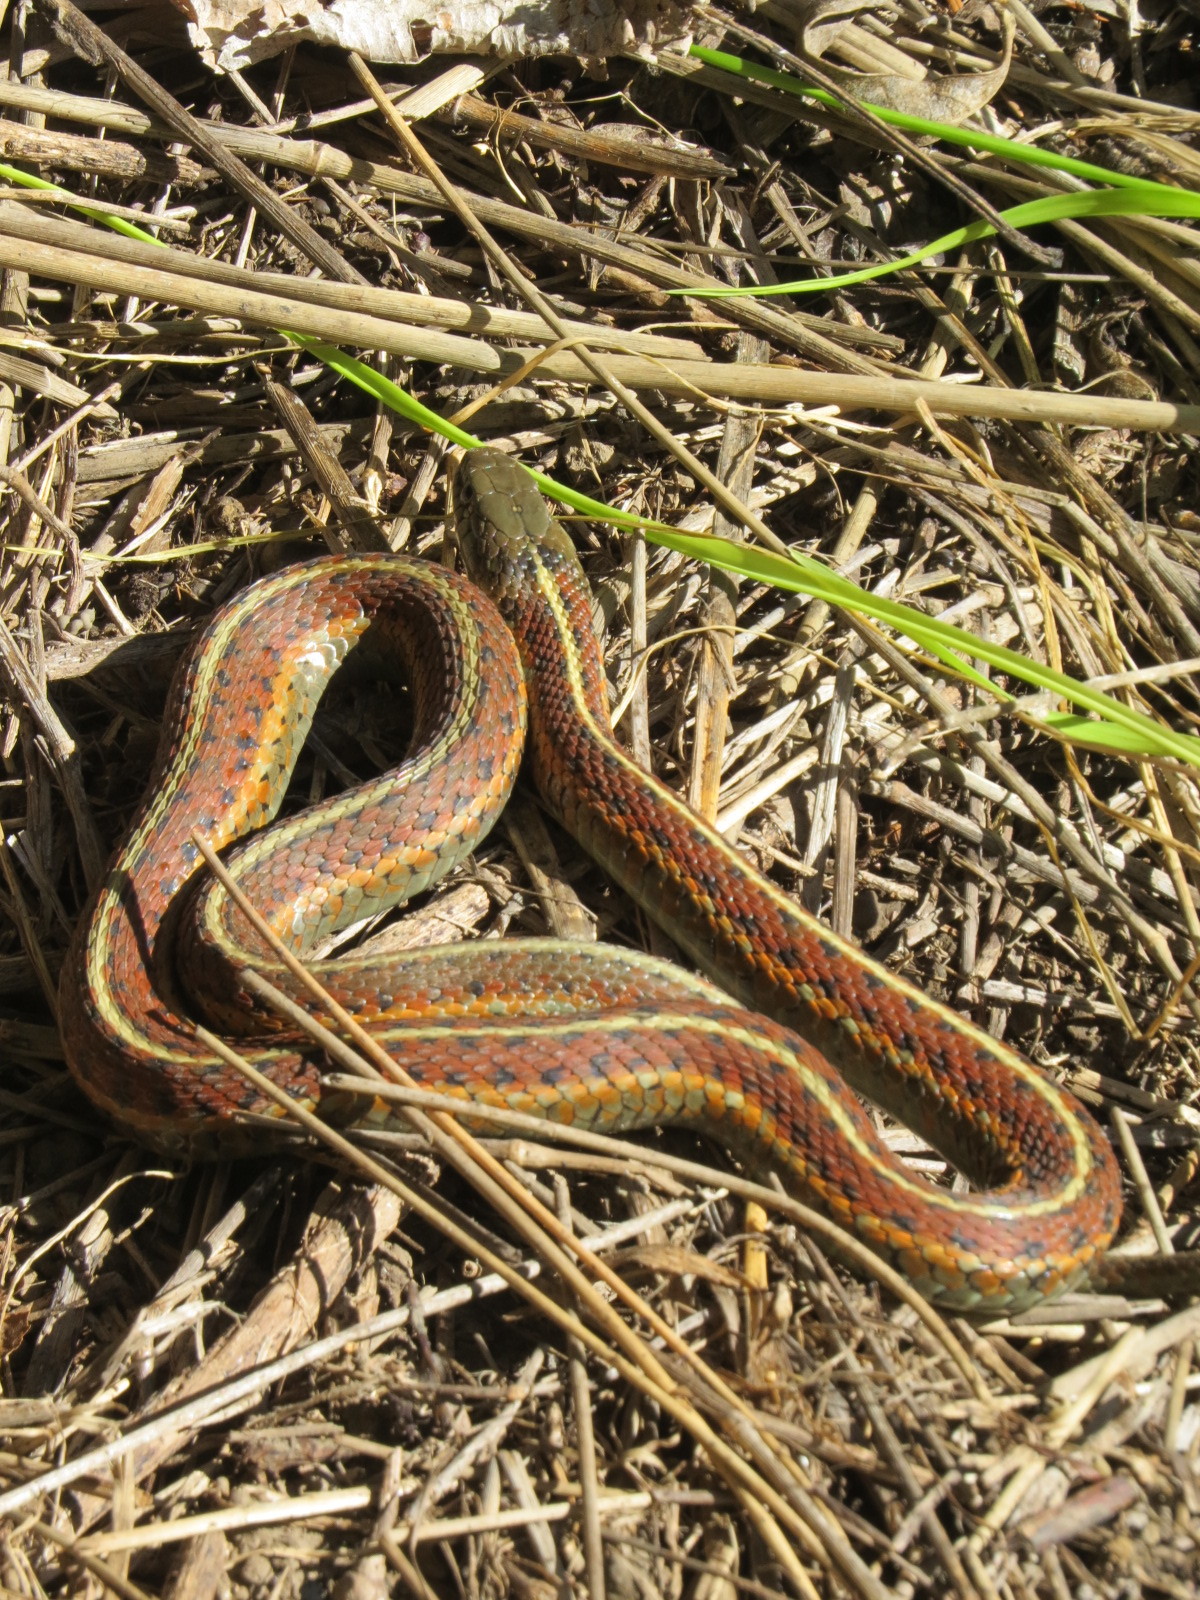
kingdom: Animalia
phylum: Chordata
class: Squamata
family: Colubridae
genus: Thamnophis
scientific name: Thamnophis elegans
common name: Western terrestrial garter snake
